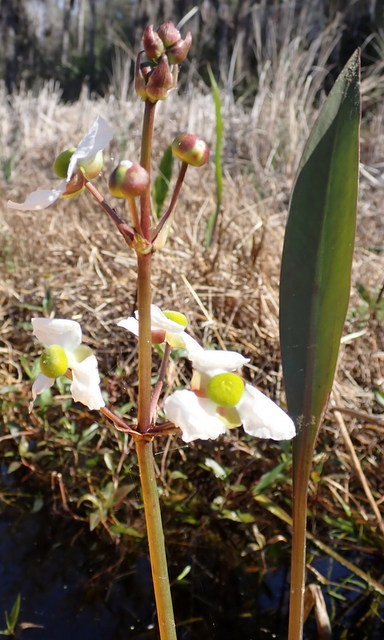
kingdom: Plantae
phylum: Tracheophyta
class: Liliopsida
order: Alismatales
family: Alismataceae
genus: Sagittaria
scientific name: Sagittaria lancifolia
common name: Lance-leaf arrowhead
